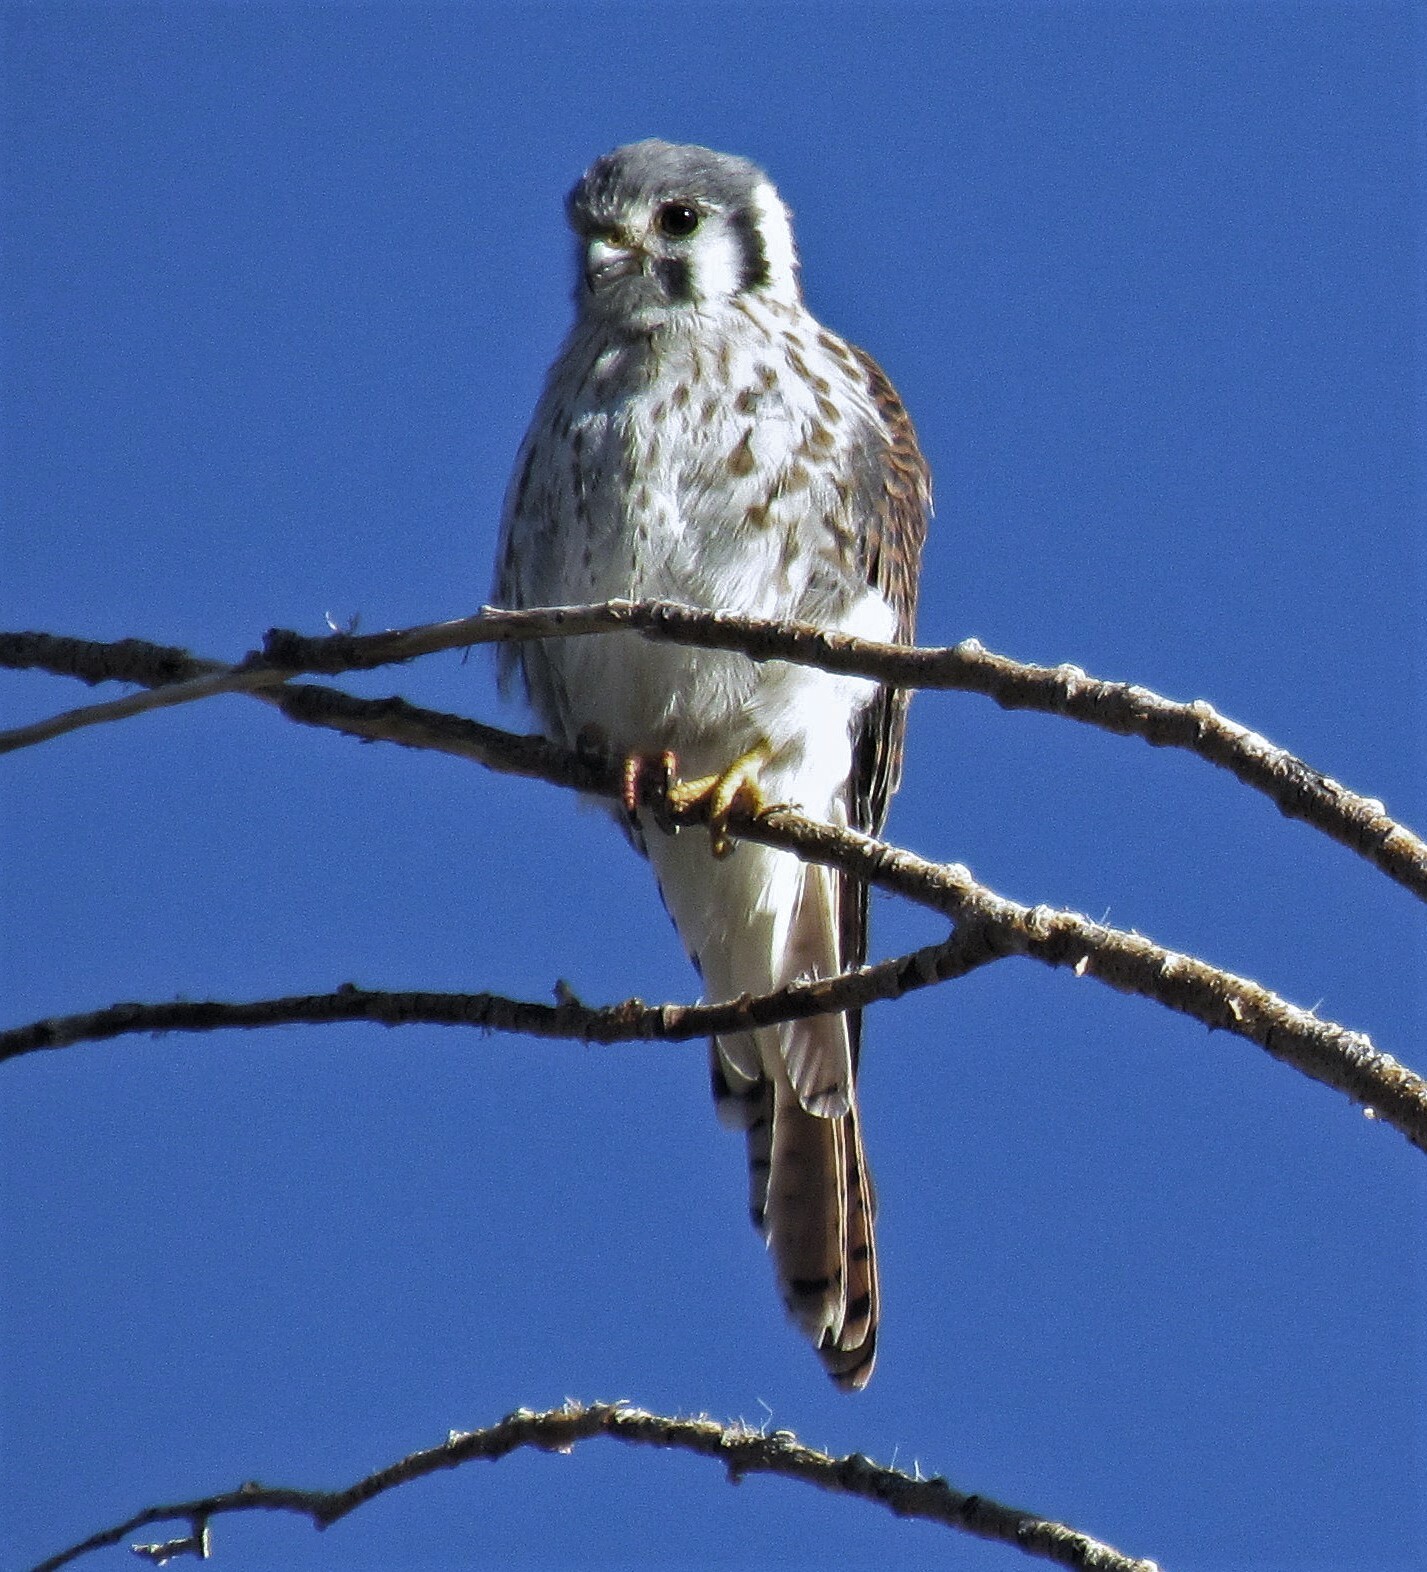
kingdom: Animalia
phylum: Chordata
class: Aves
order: Falconiformes
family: Falconidae
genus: Falco
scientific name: Falco sparverius
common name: American kestrel
